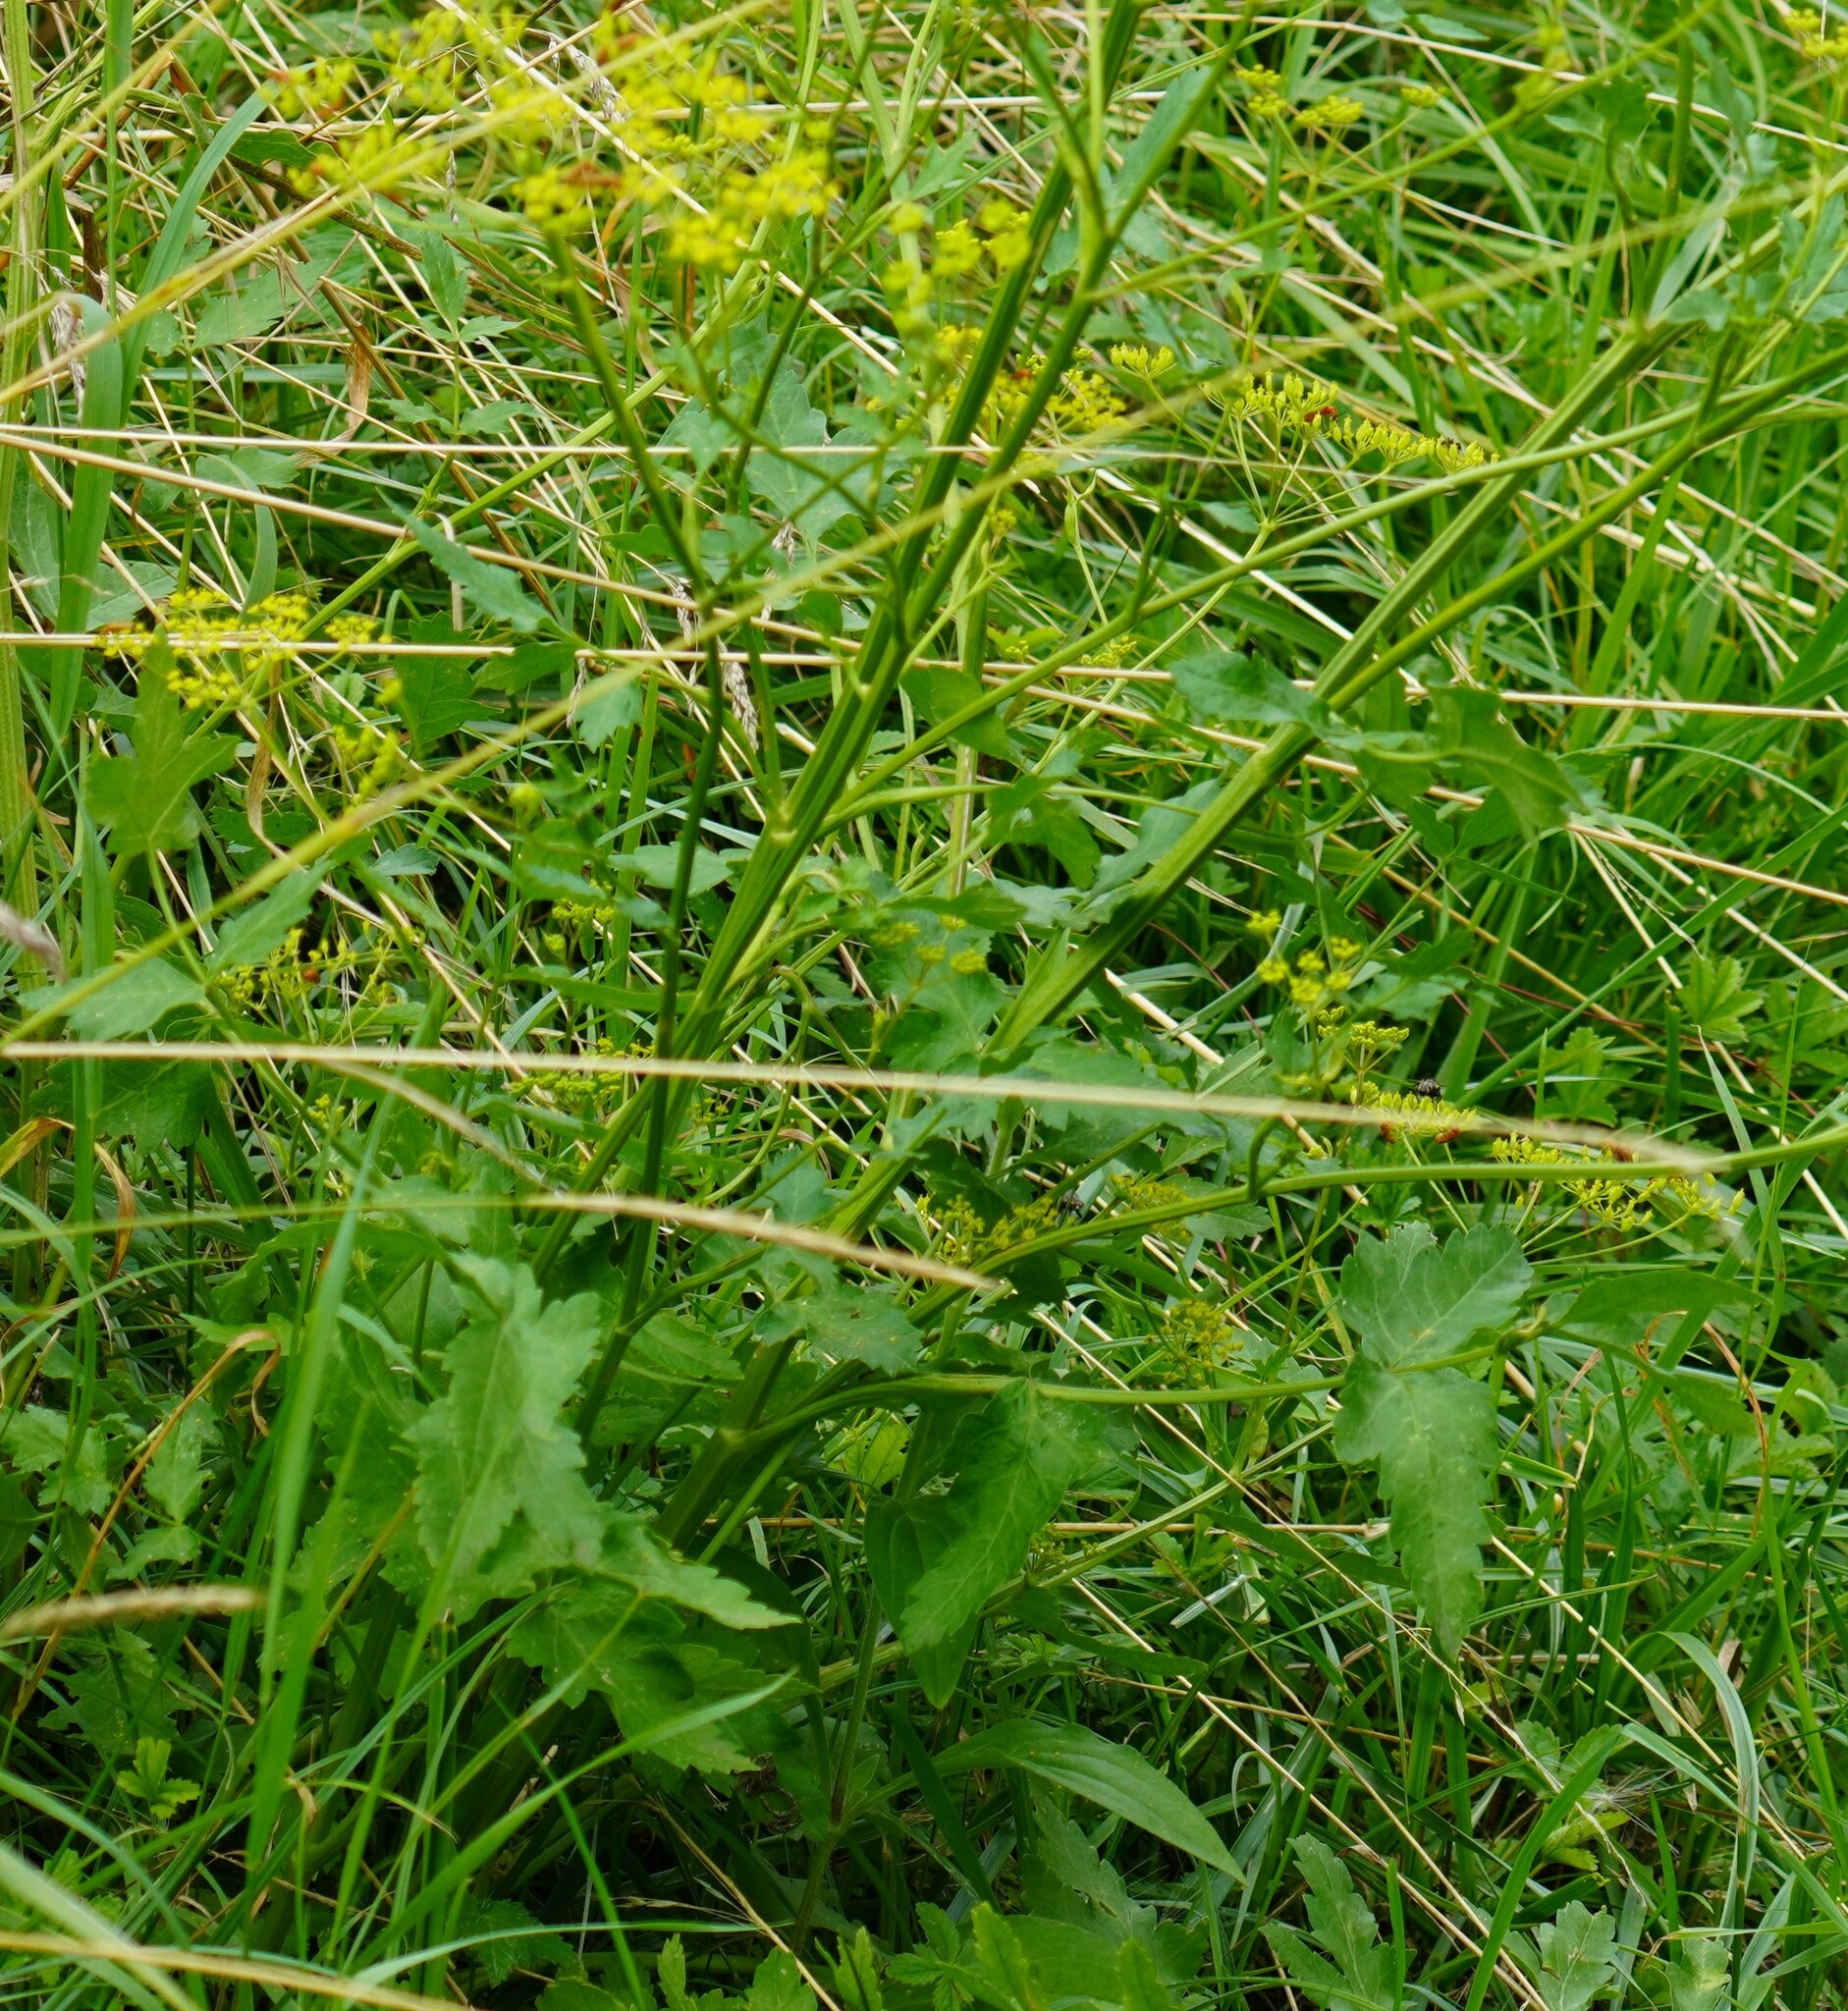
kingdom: Plantae
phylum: Tracheophyta
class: Magnoliopsida
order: Apiales
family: Apiaceae
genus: Pastinaca
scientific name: Pastinaca sativa
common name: Wild parsnip
